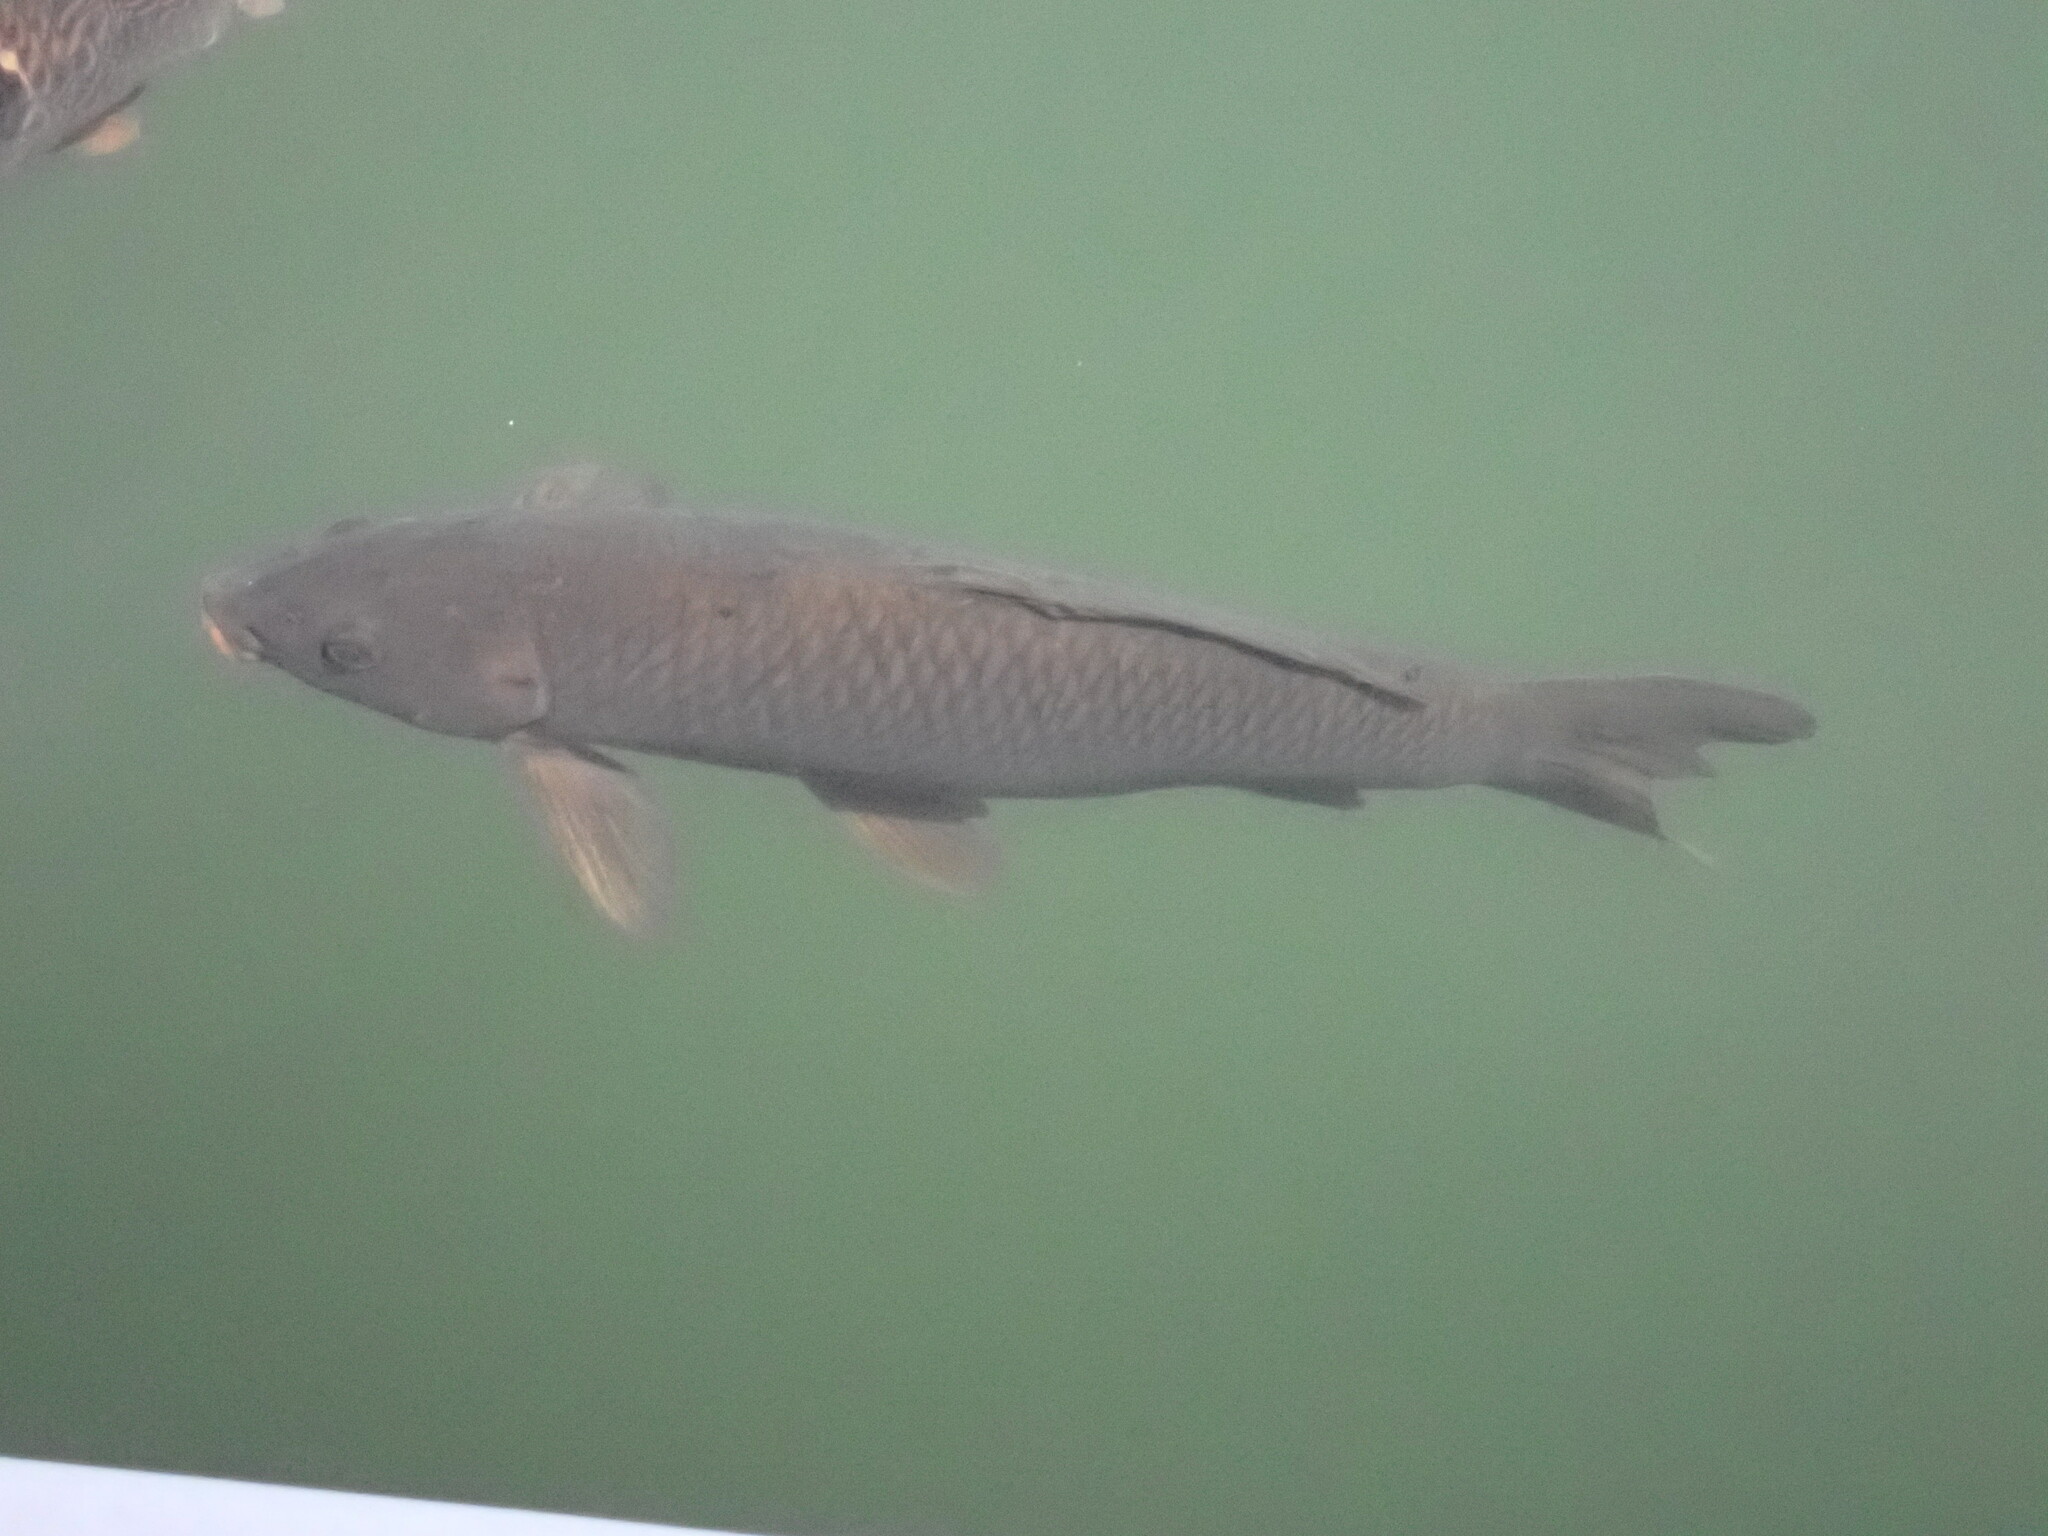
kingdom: Animalia
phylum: Chordata
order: Cypriniformes
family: Cyprinidae
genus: Cyprinus
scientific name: Cyprinus carpio
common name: Common carp
